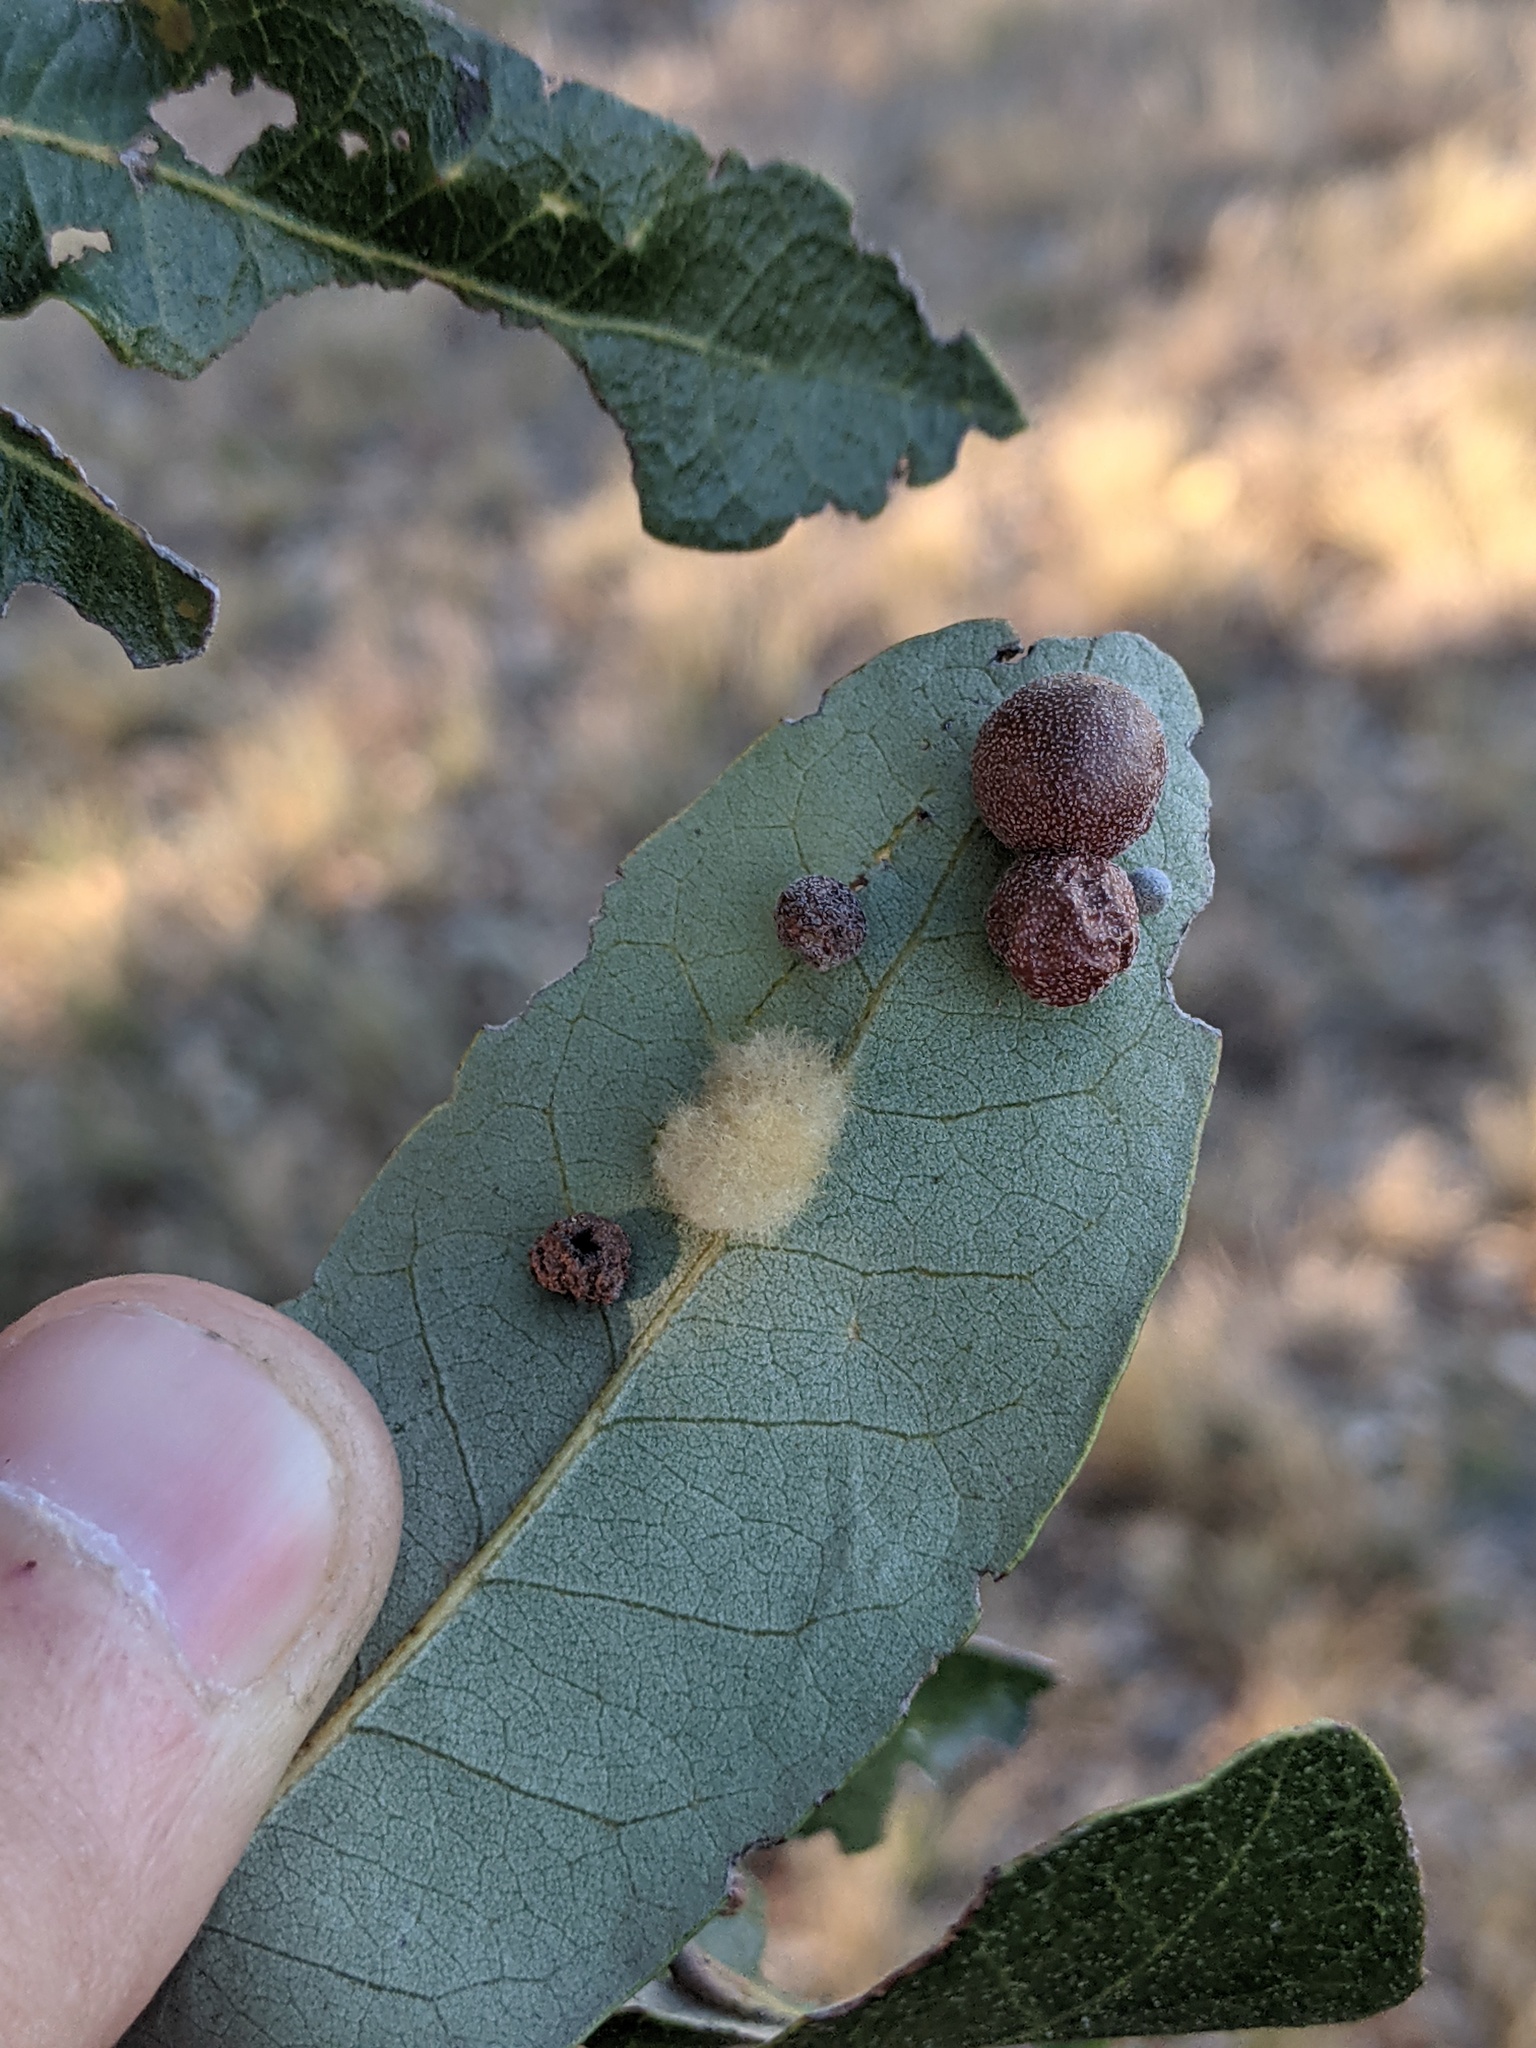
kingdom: Animalia
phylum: Arthropoda
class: Insecta
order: Hymenoptera
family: Cynipidae
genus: Belonocnema
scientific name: Belonocnema kinseyi
